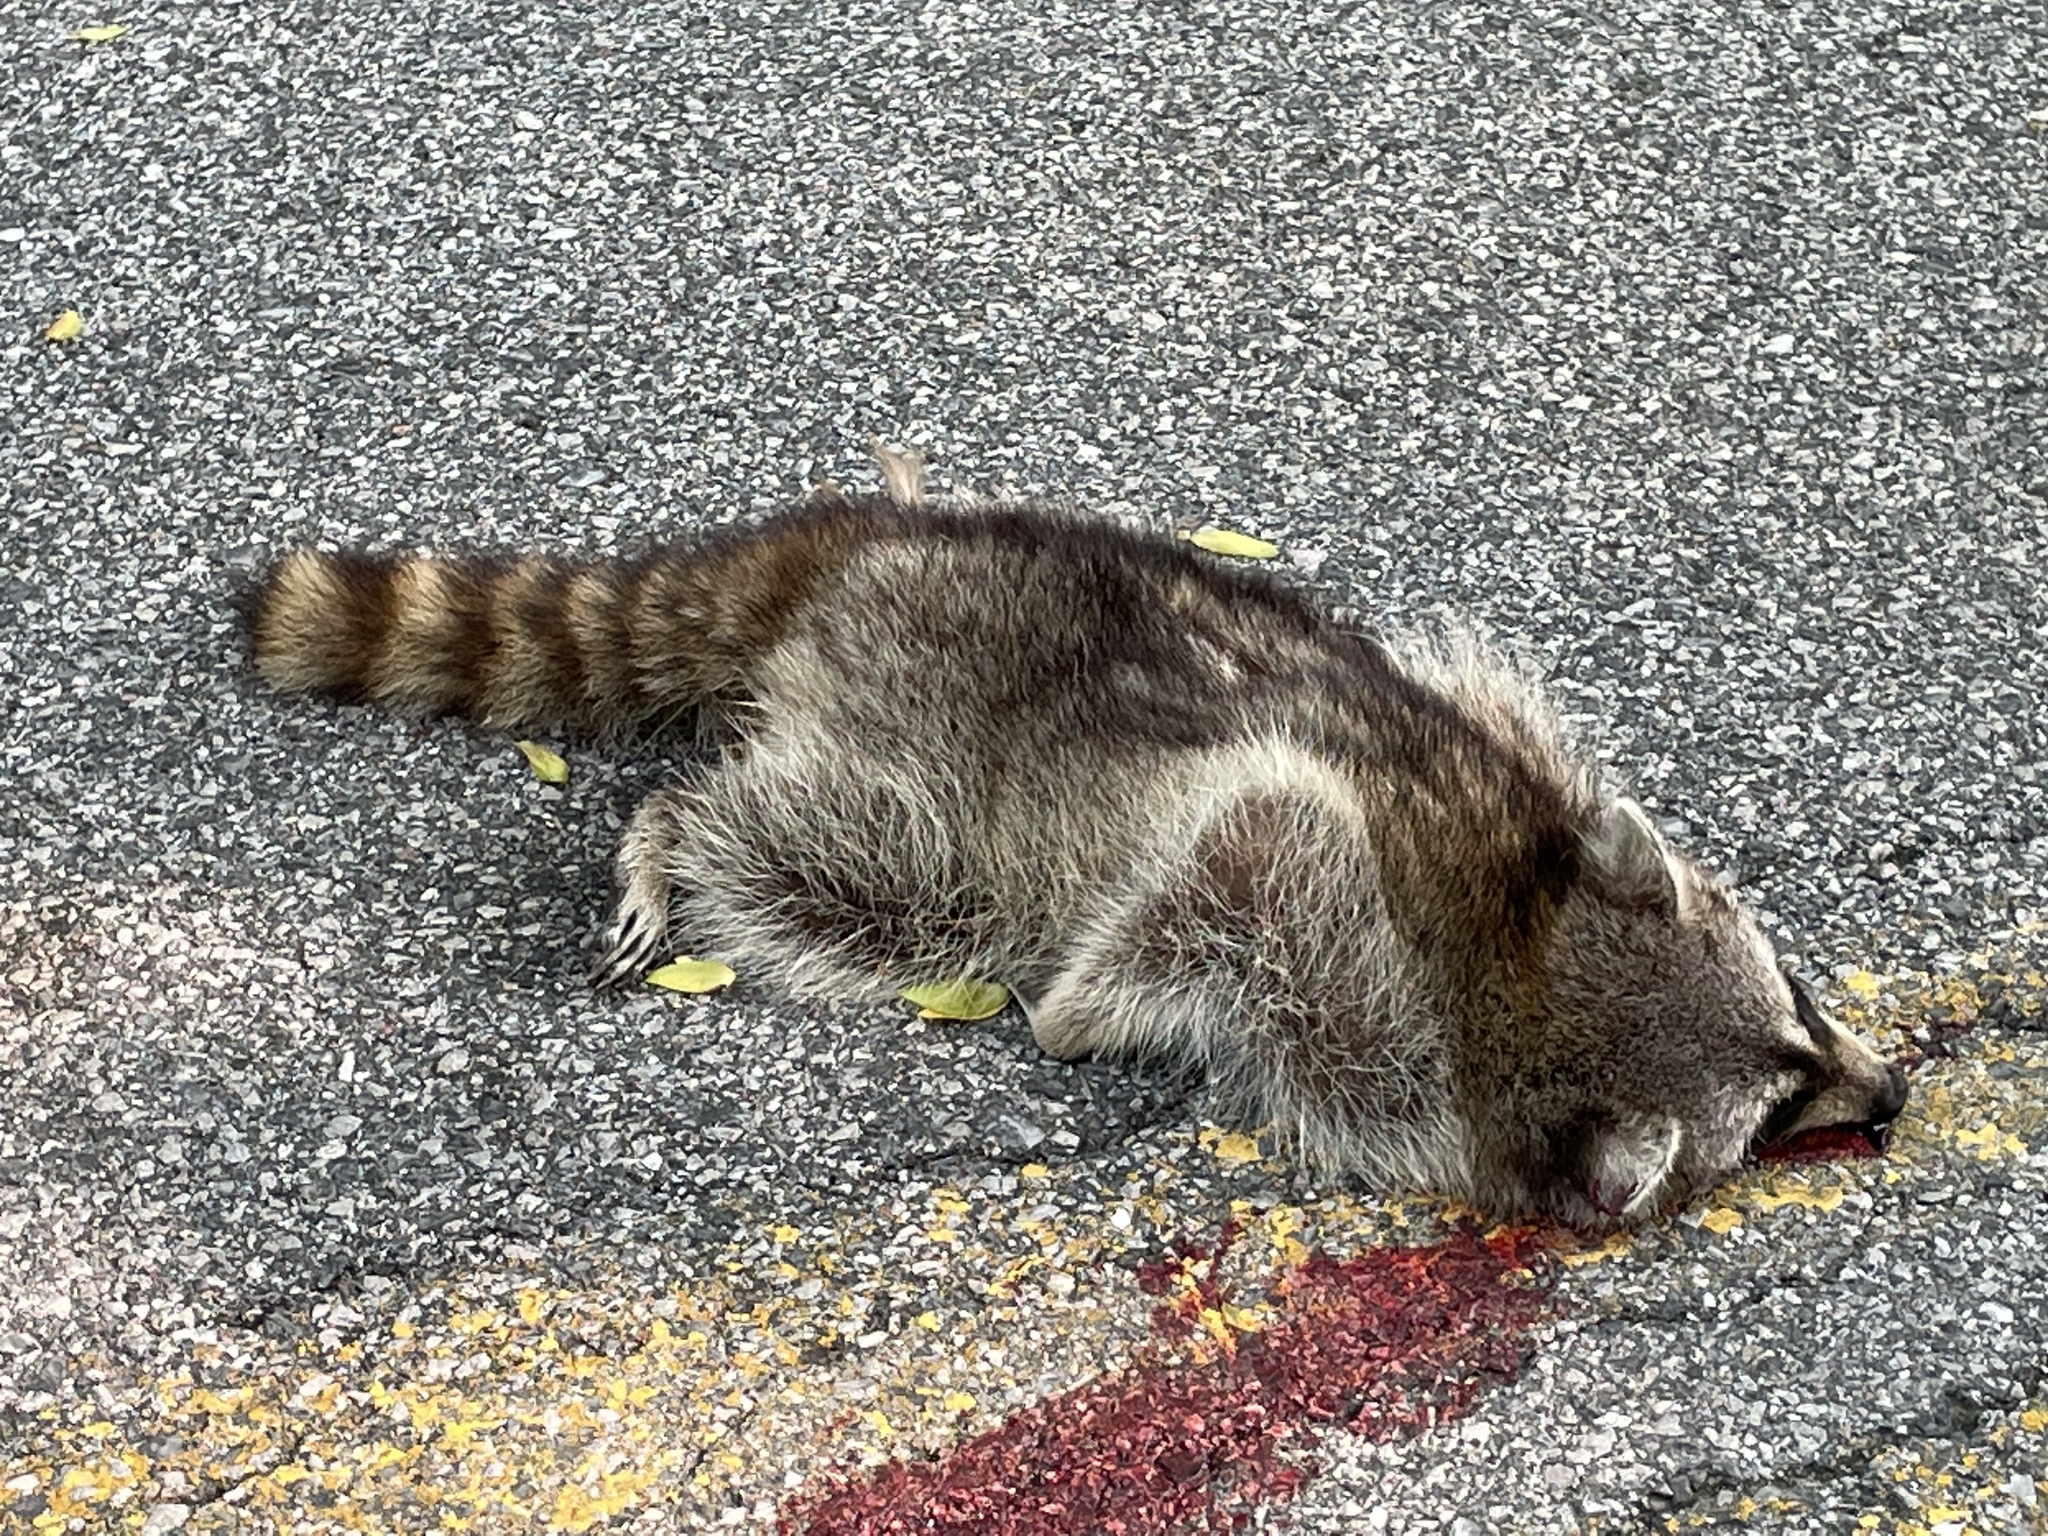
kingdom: Animalia
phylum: Chordata
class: Mammalia
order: Carnivora
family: Procyonidae
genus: Procyon
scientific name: Procyon lotor
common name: Raccoon
